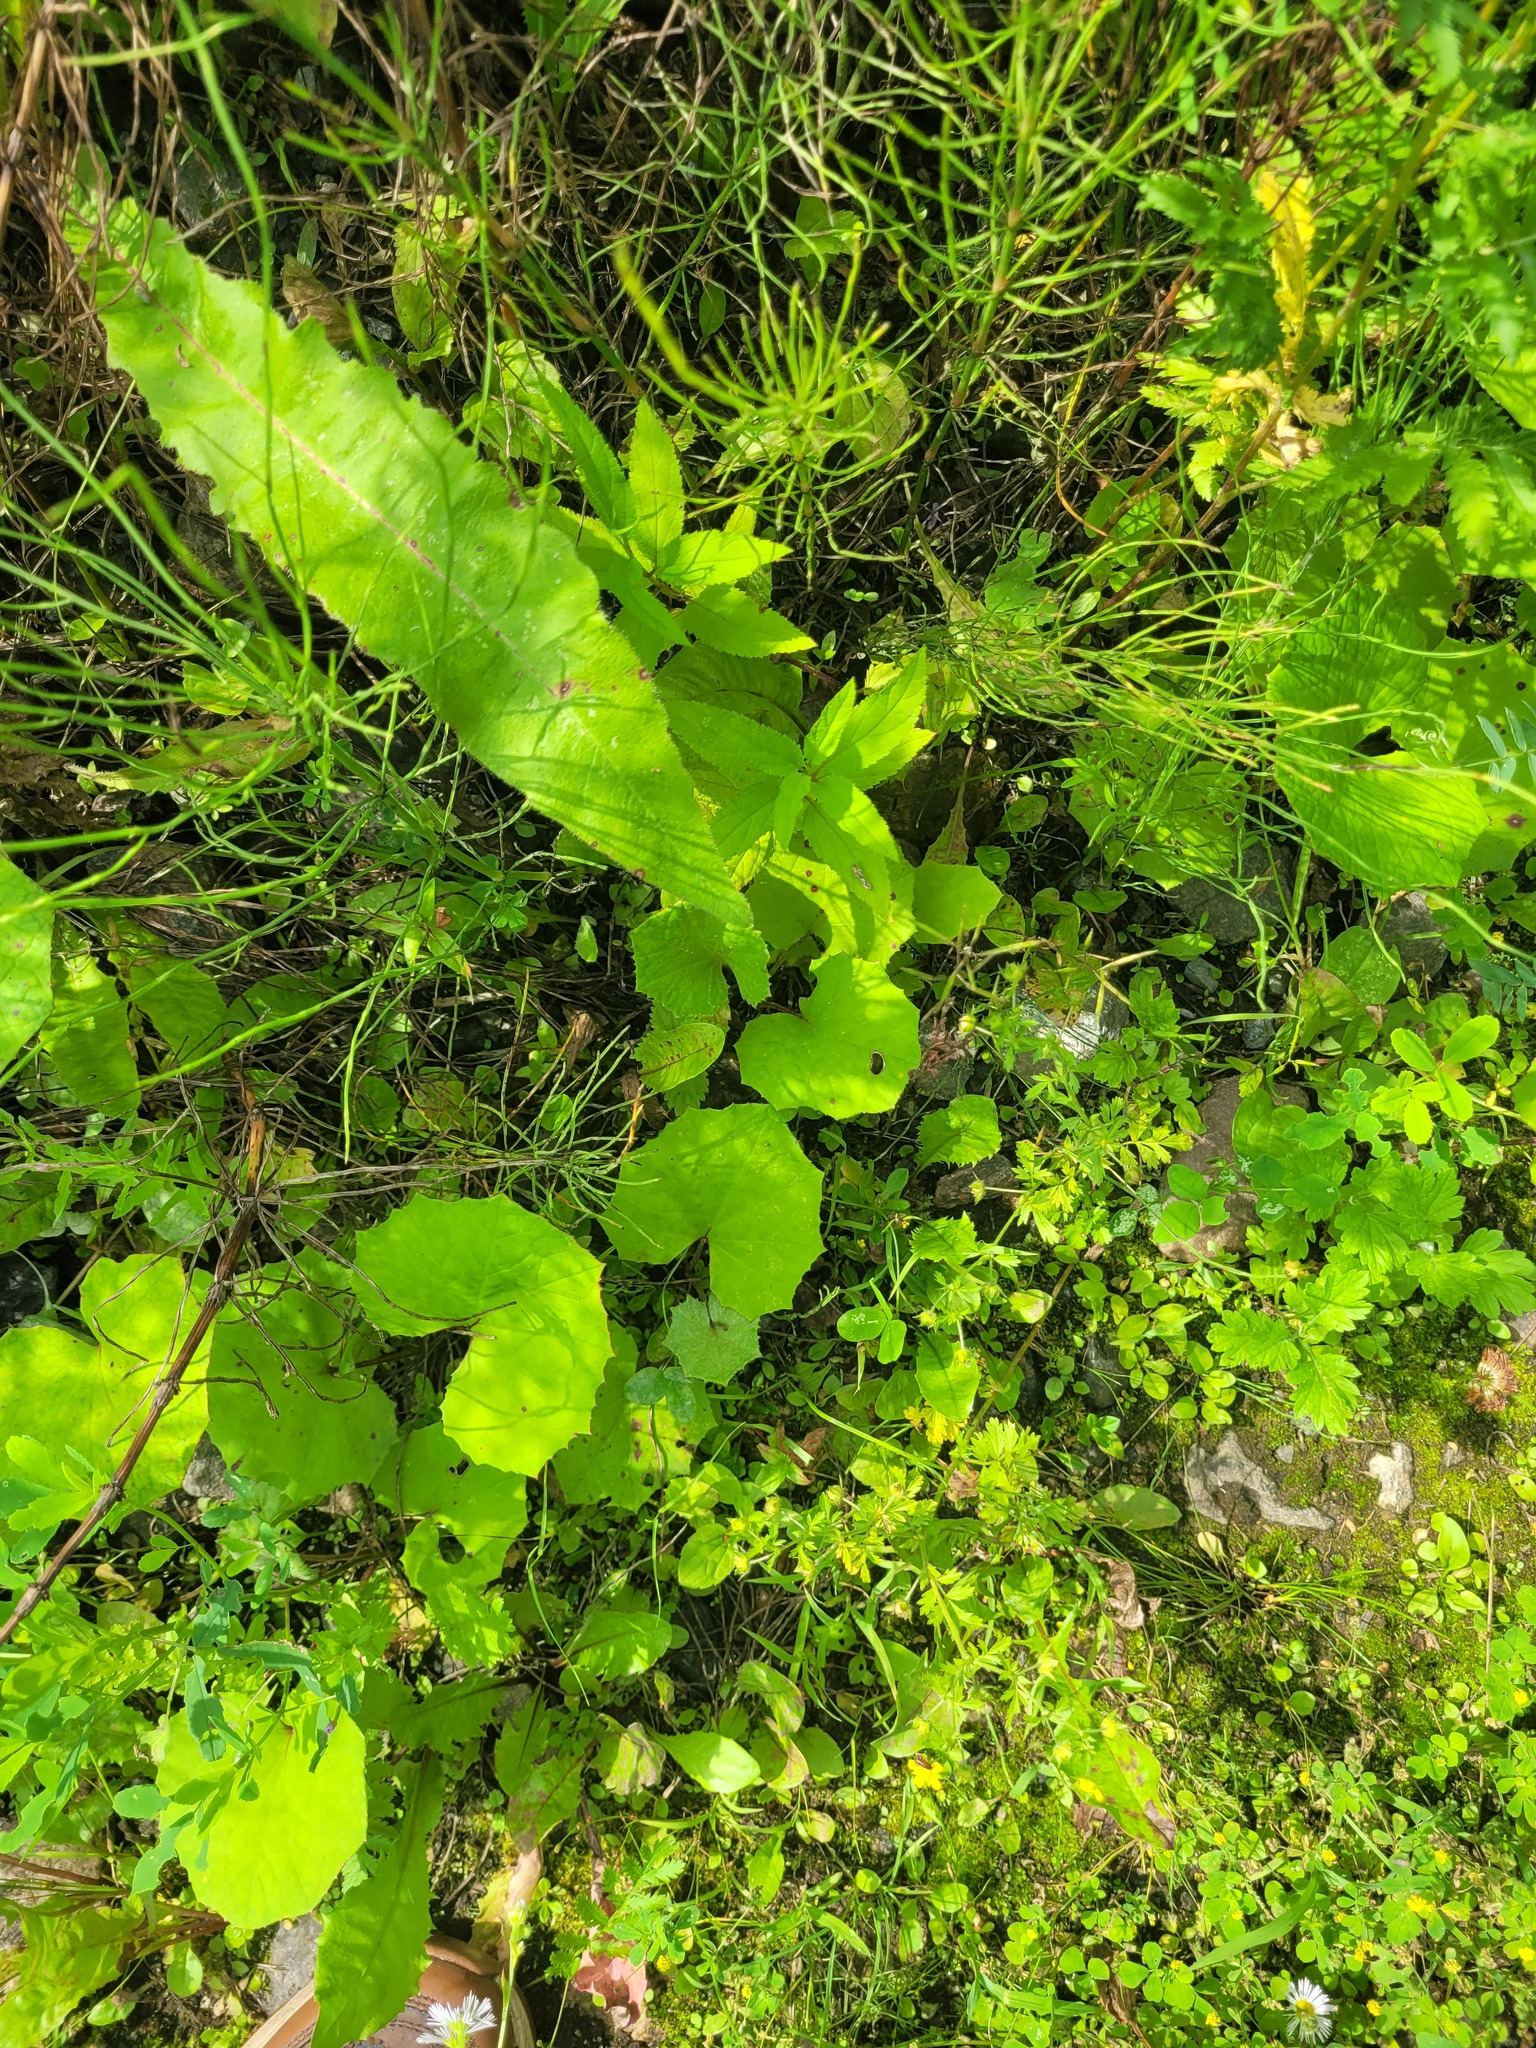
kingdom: Plantae
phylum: Tracheophyta
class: Magnoliopsida
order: Asterales
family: Asteraceae
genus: Tussilago
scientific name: Tussilago farfara
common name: Coltsfoot
